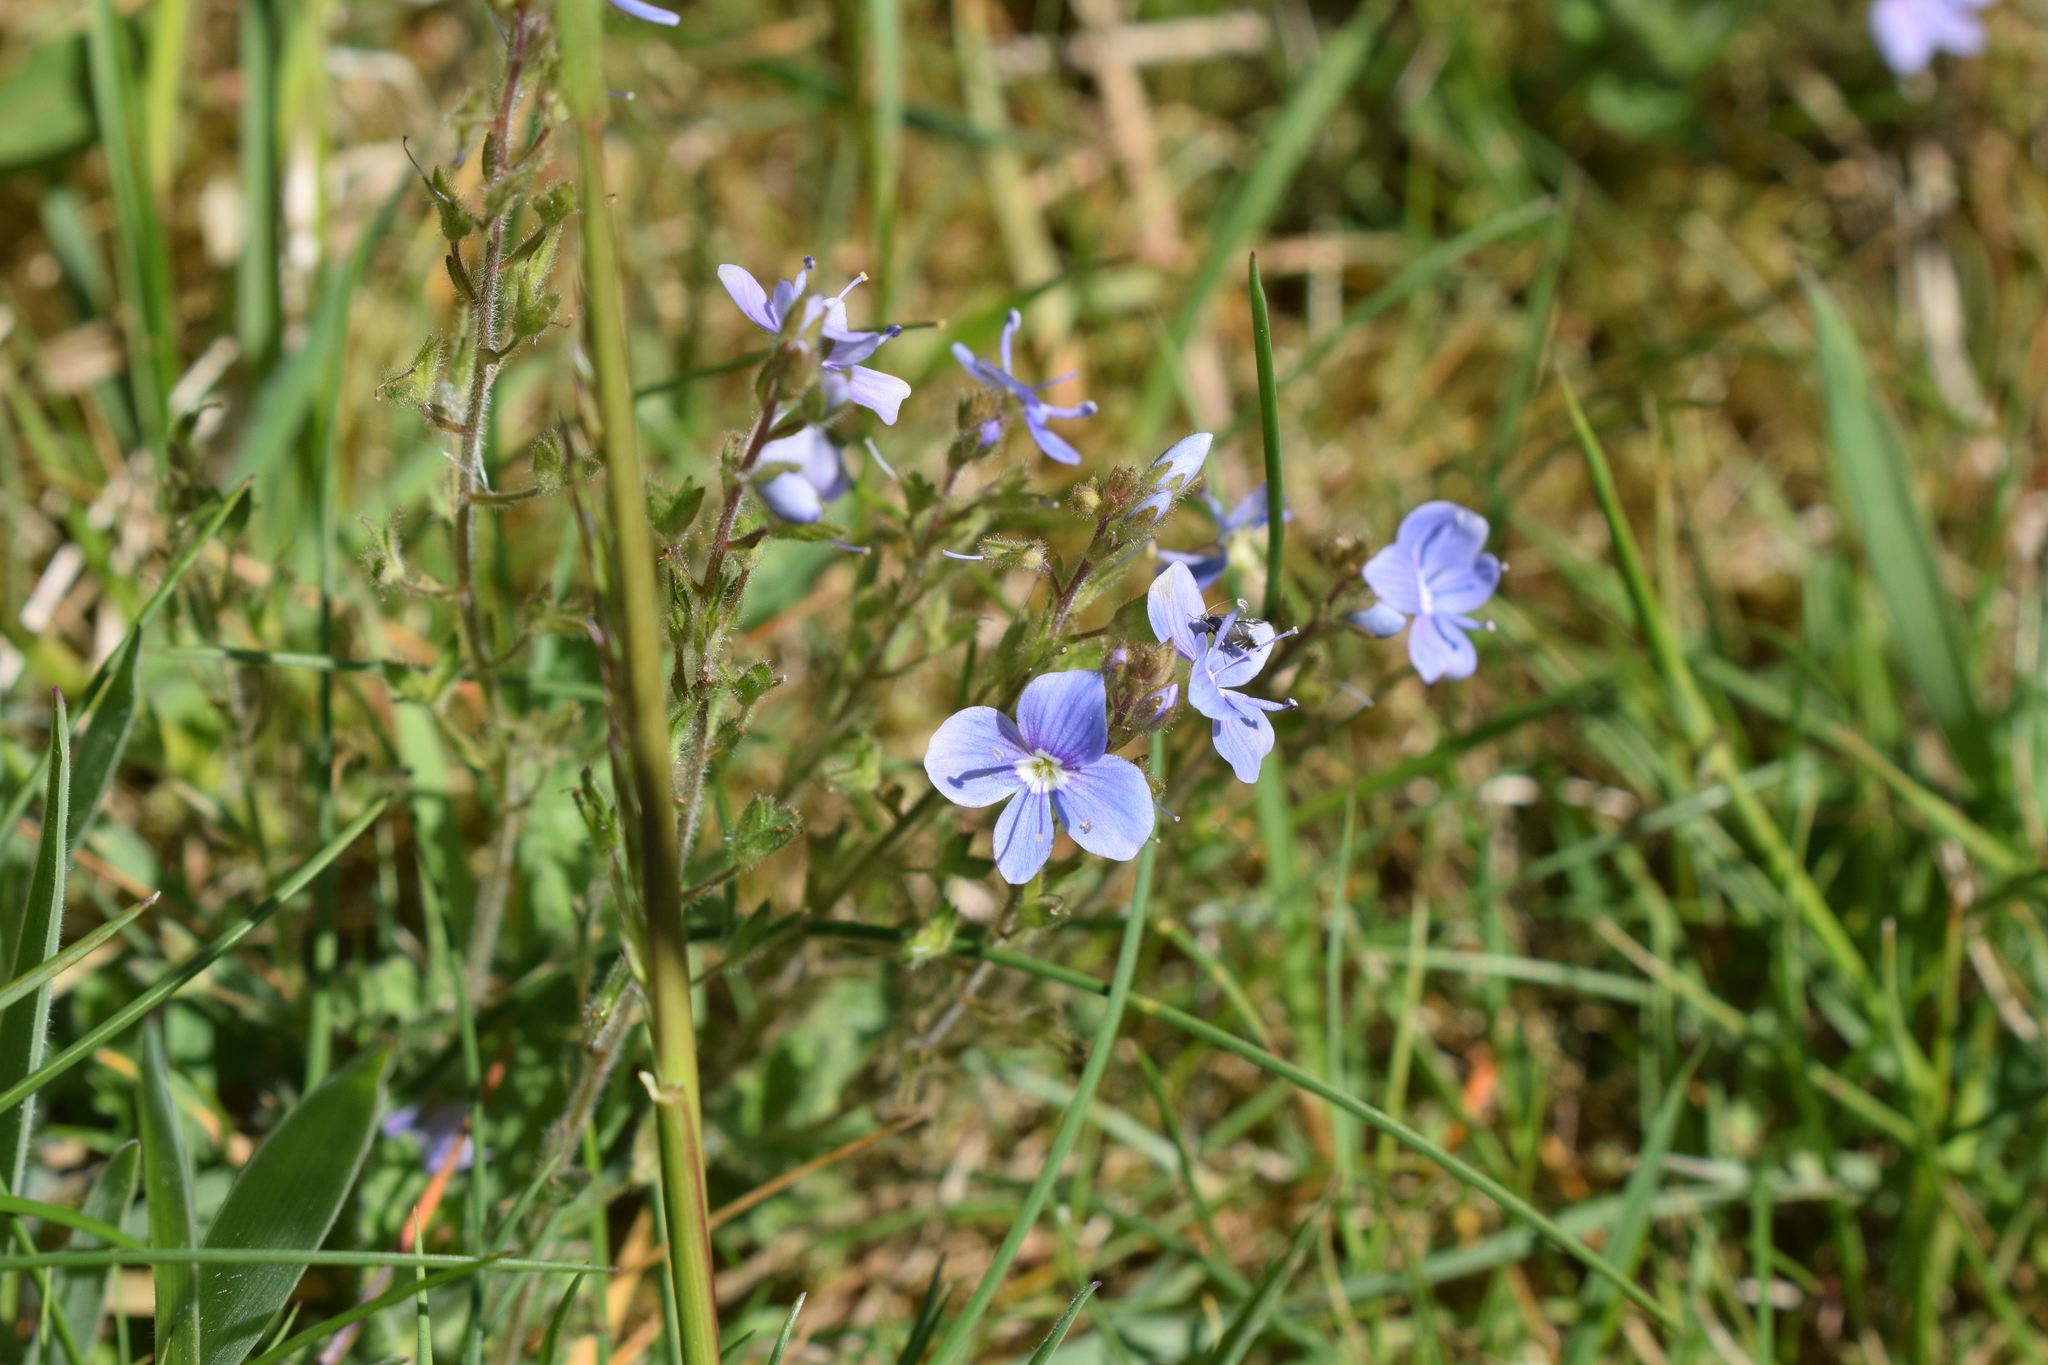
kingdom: Plantae
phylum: Tracheophyta
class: Magnoliopsida
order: Lamiales
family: Plantaginaceae
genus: Veronica
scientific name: Veronica chamaedrys
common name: Germander speedwell
